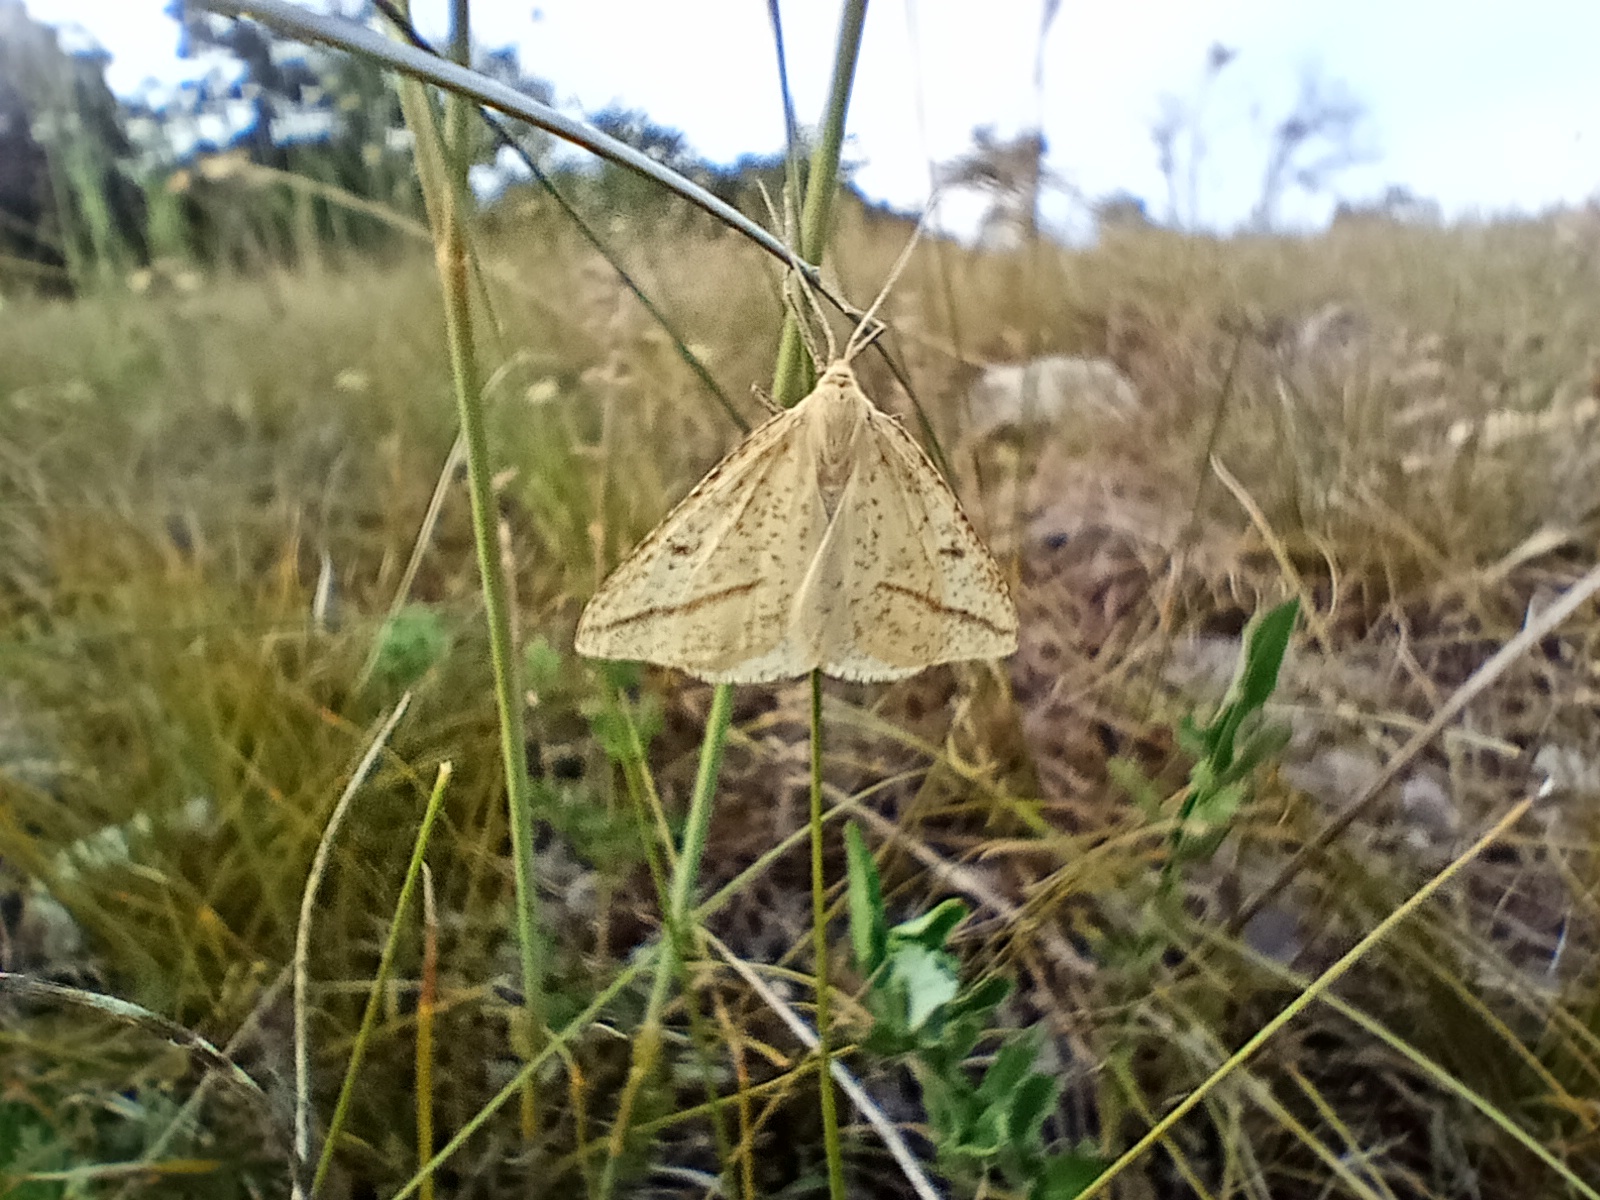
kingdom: Animalia
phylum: Arthropoda
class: Insecta
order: Lepidoptera
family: Geometridae
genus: Aspitates
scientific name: Aspitates gilvaria
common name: Straw belle
